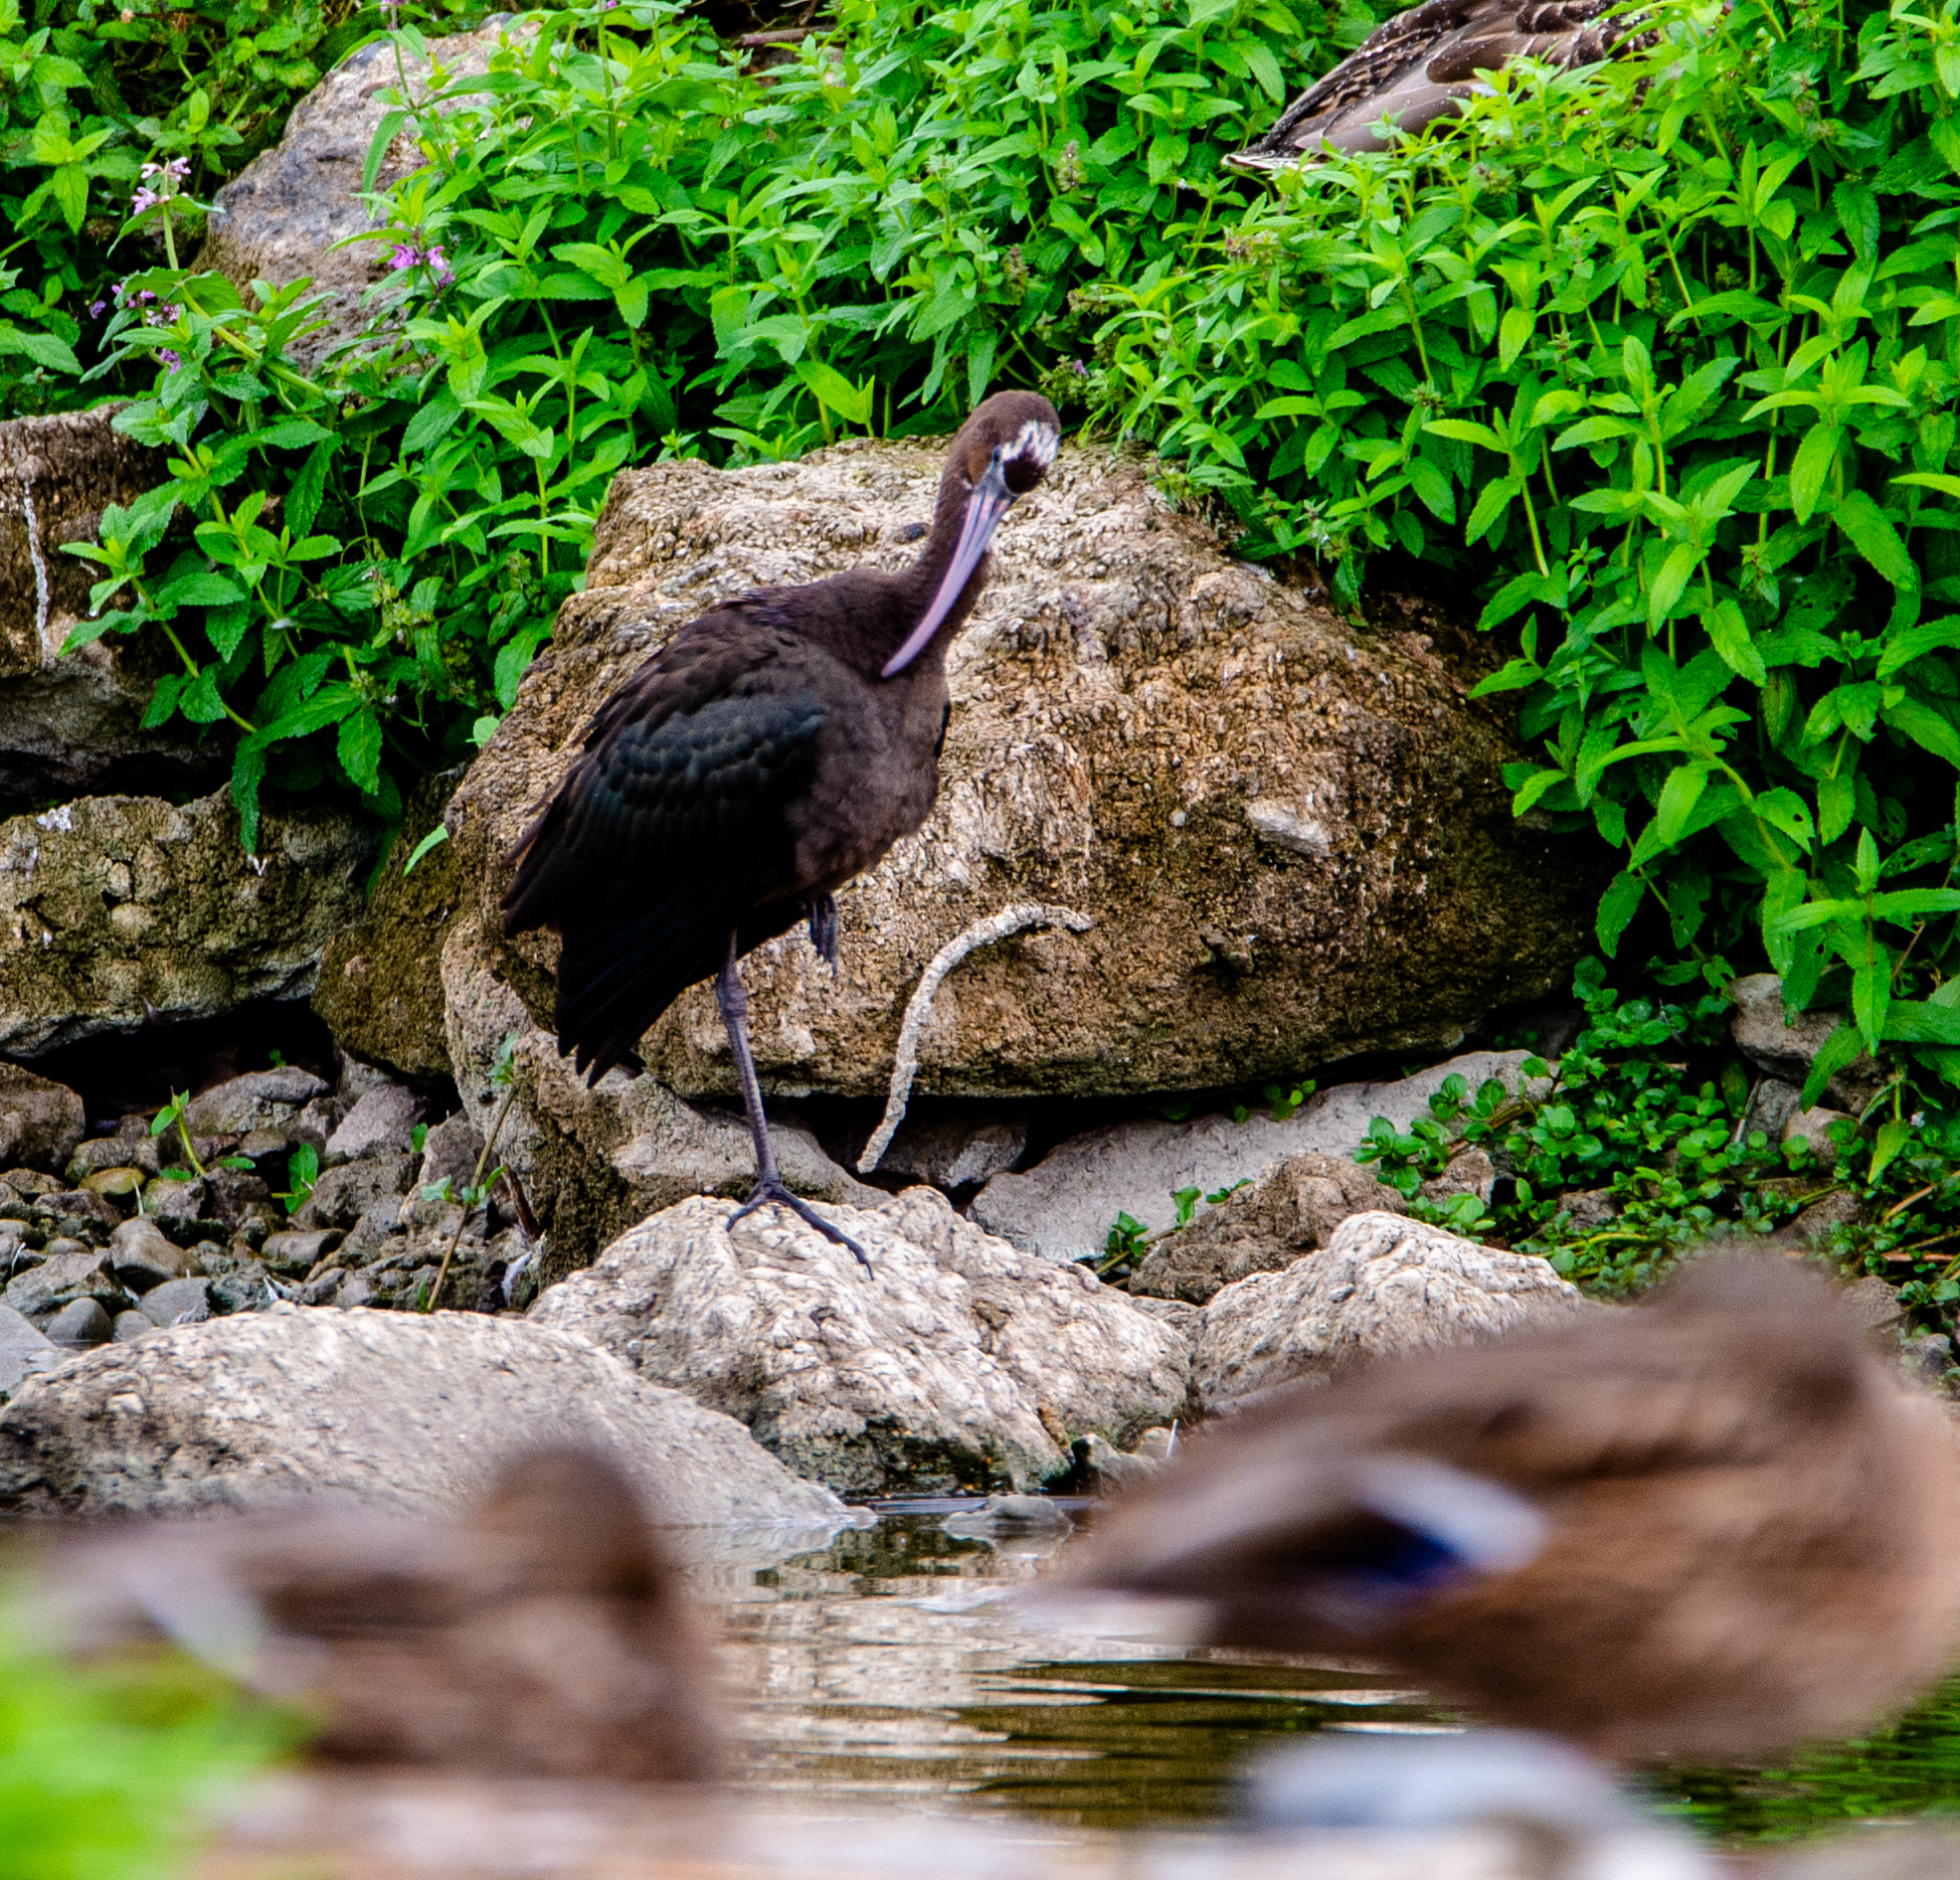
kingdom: Animalia
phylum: Chordata
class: Aves
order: Pelecaniformes
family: Threskiornithidae
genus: Plegadis
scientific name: Plegadis falcinellus
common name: Glossy ibis
